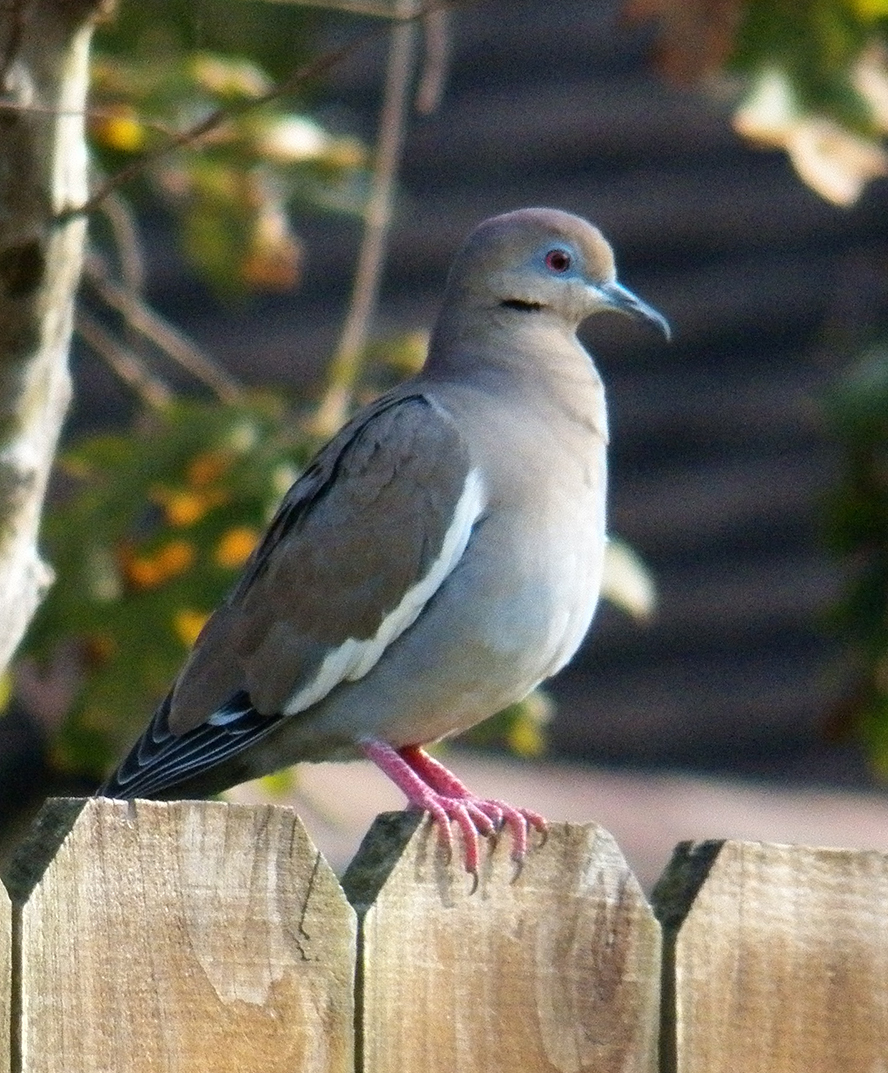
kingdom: Animalia
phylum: Chordata
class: Aves
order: Columbiformes
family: Columbidae
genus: Zenaida
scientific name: Zenaida asiatica
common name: White-winged dove
